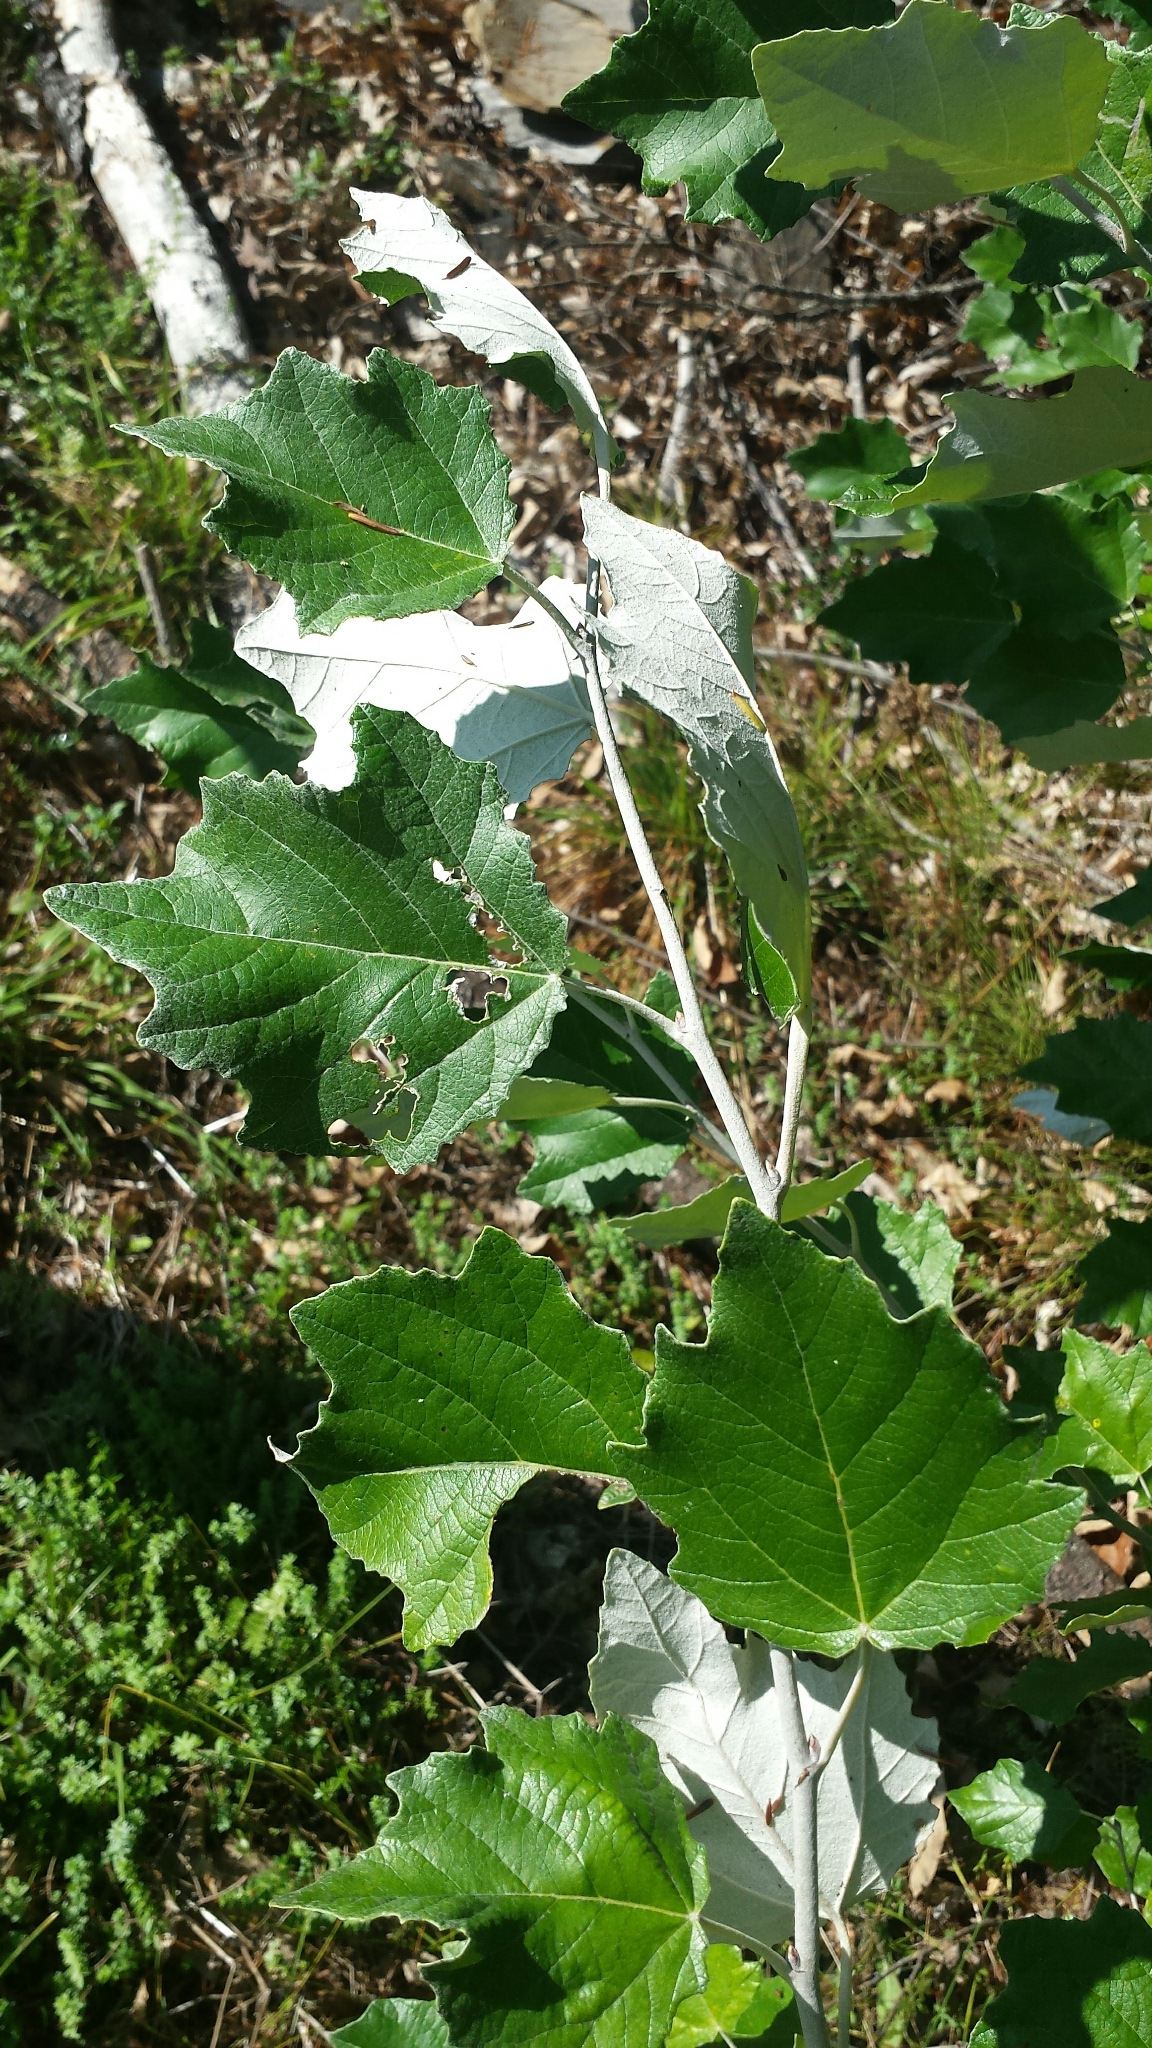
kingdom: Plantae
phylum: Tracheophyta
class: Magnoliopsida
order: Malpighiales
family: Salicaceae
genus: Populus
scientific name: Populus alba
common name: White poplar
